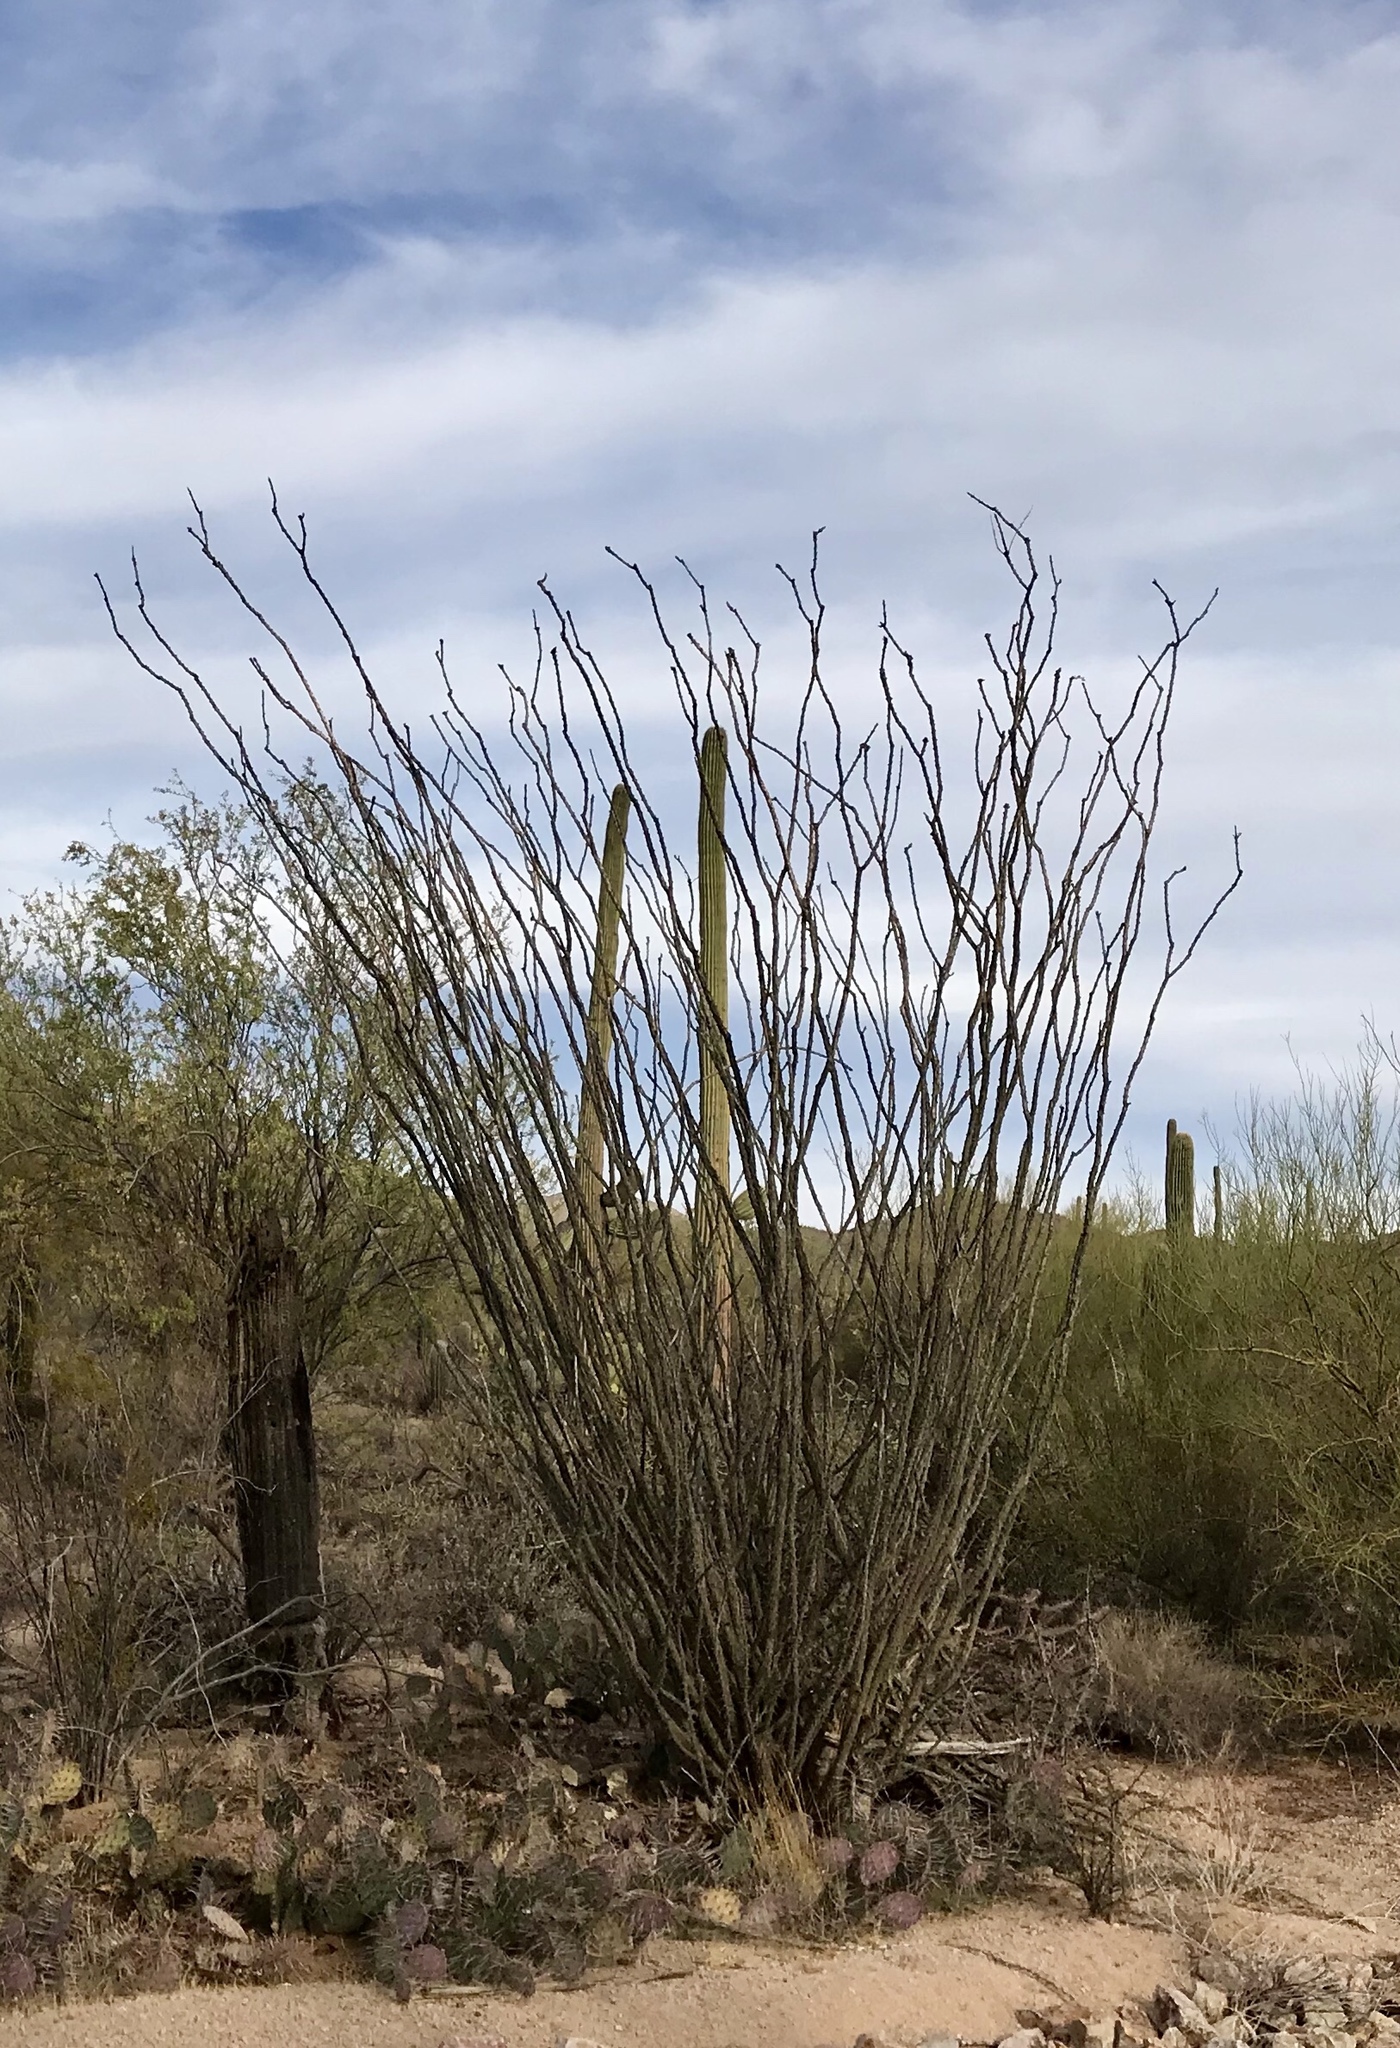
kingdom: Plantae
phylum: Tracheophyta
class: Magnoliopsida
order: Ericales
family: Fouquieriaceae
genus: Fouquieria
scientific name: Fouquieria splendens
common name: Vine-cactus
